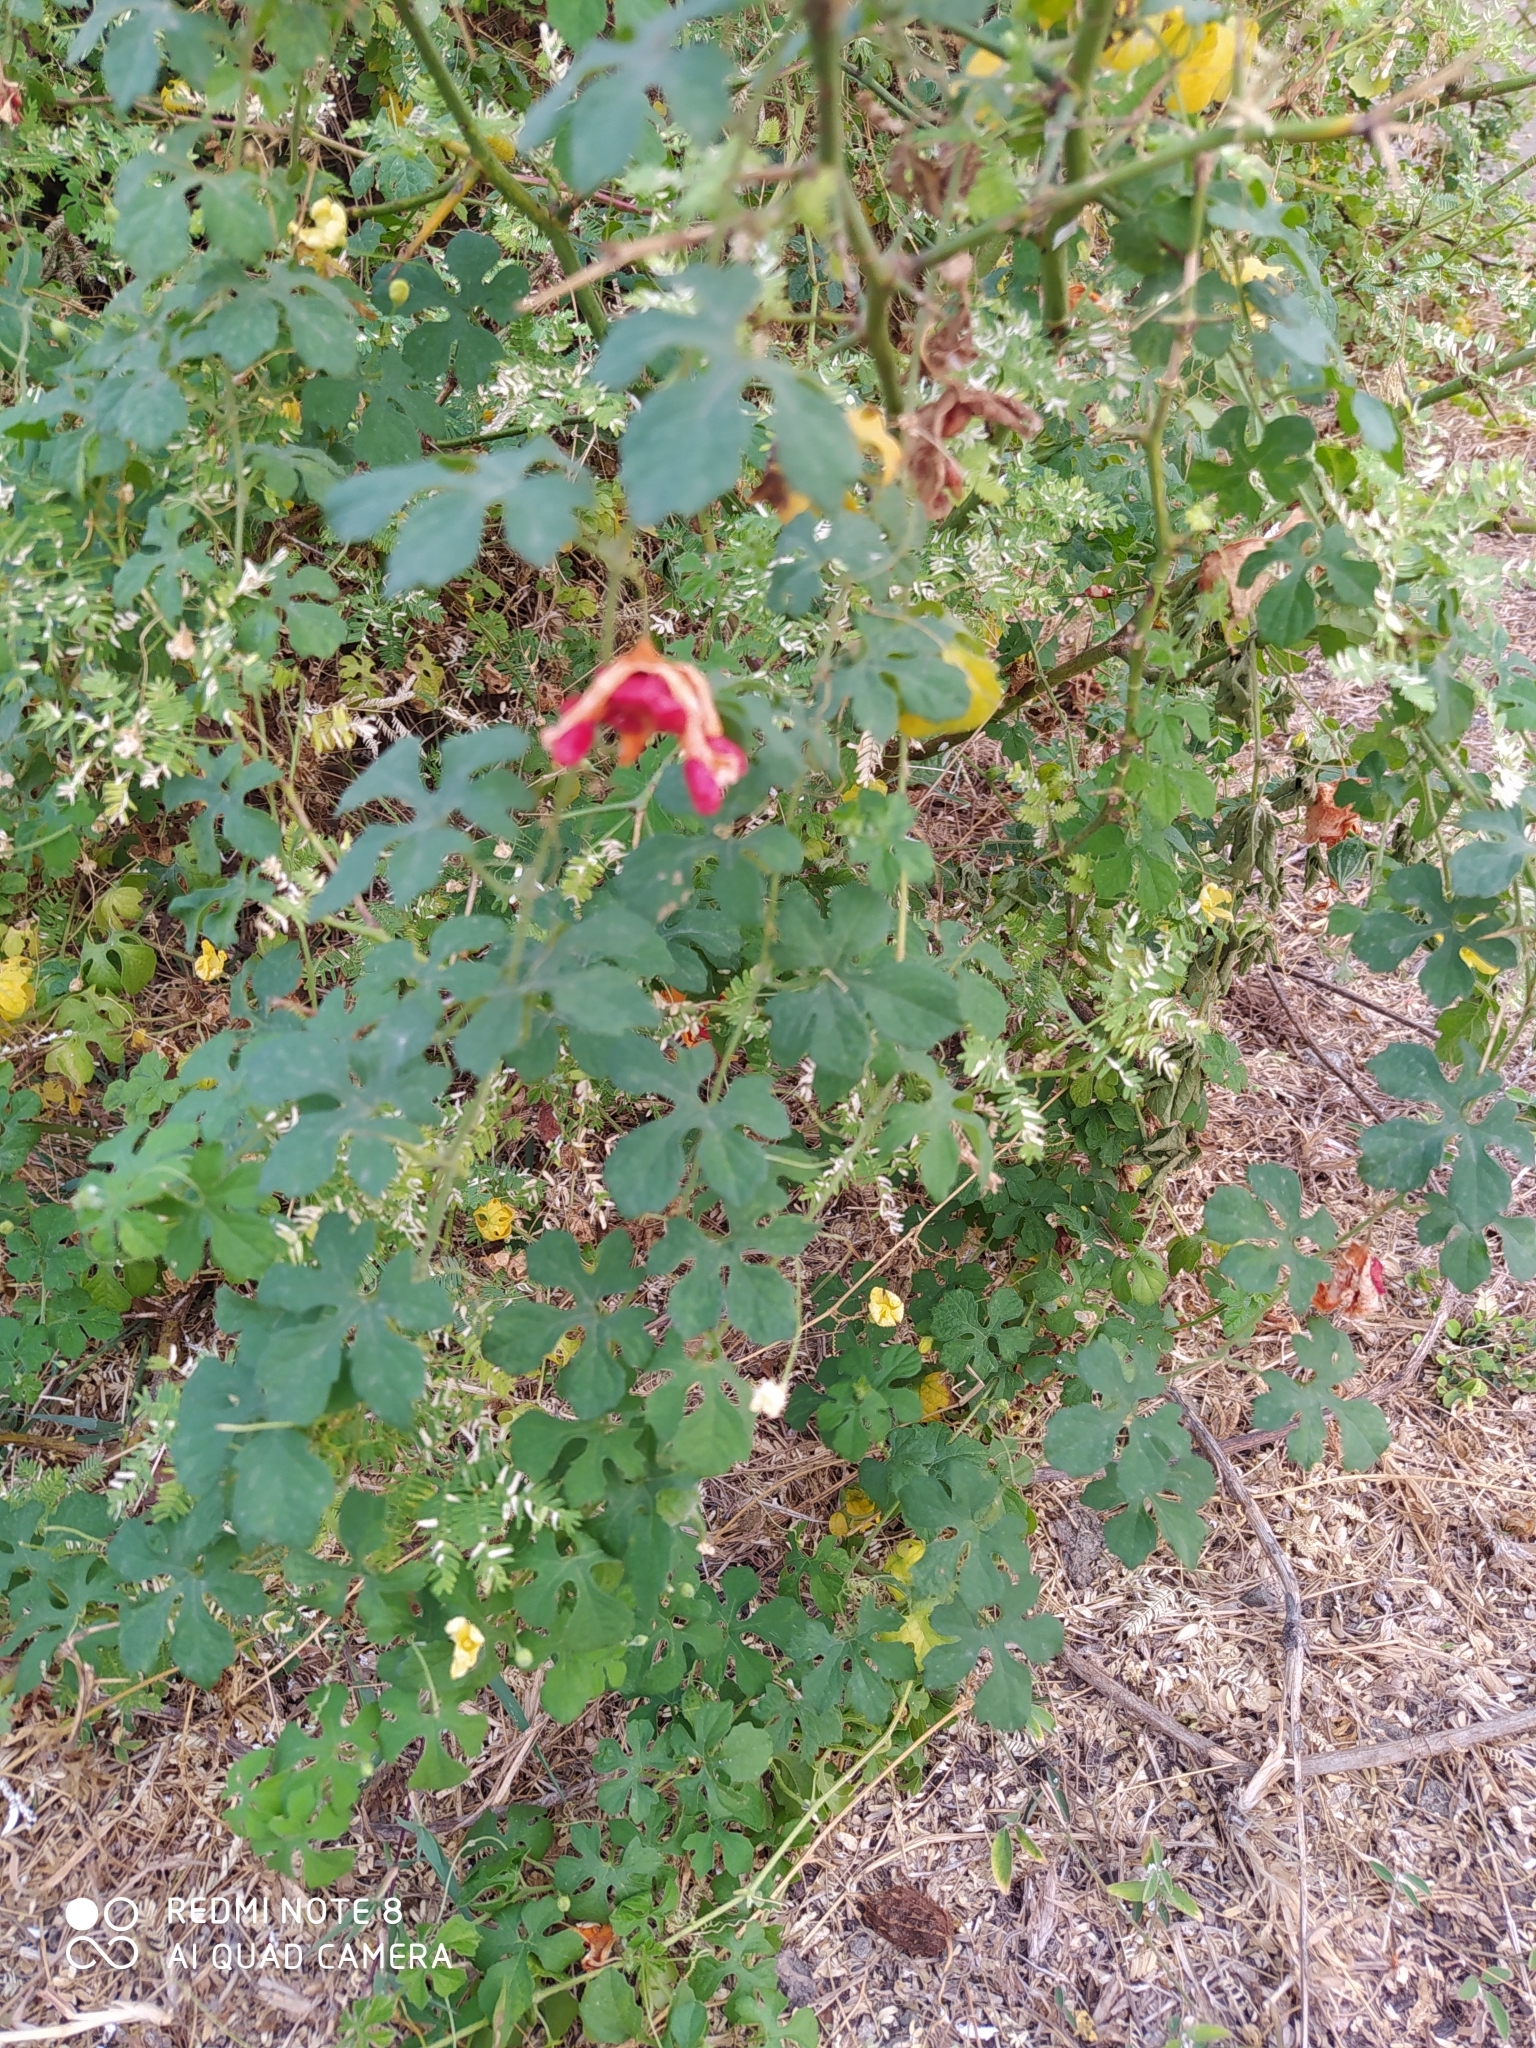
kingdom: Plantae
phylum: Tracheophyta
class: Magnoliopsida
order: Cucurbitales
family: Cucurbitaceae
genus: Momordica
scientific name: Momordica charantia
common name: Balsampear
